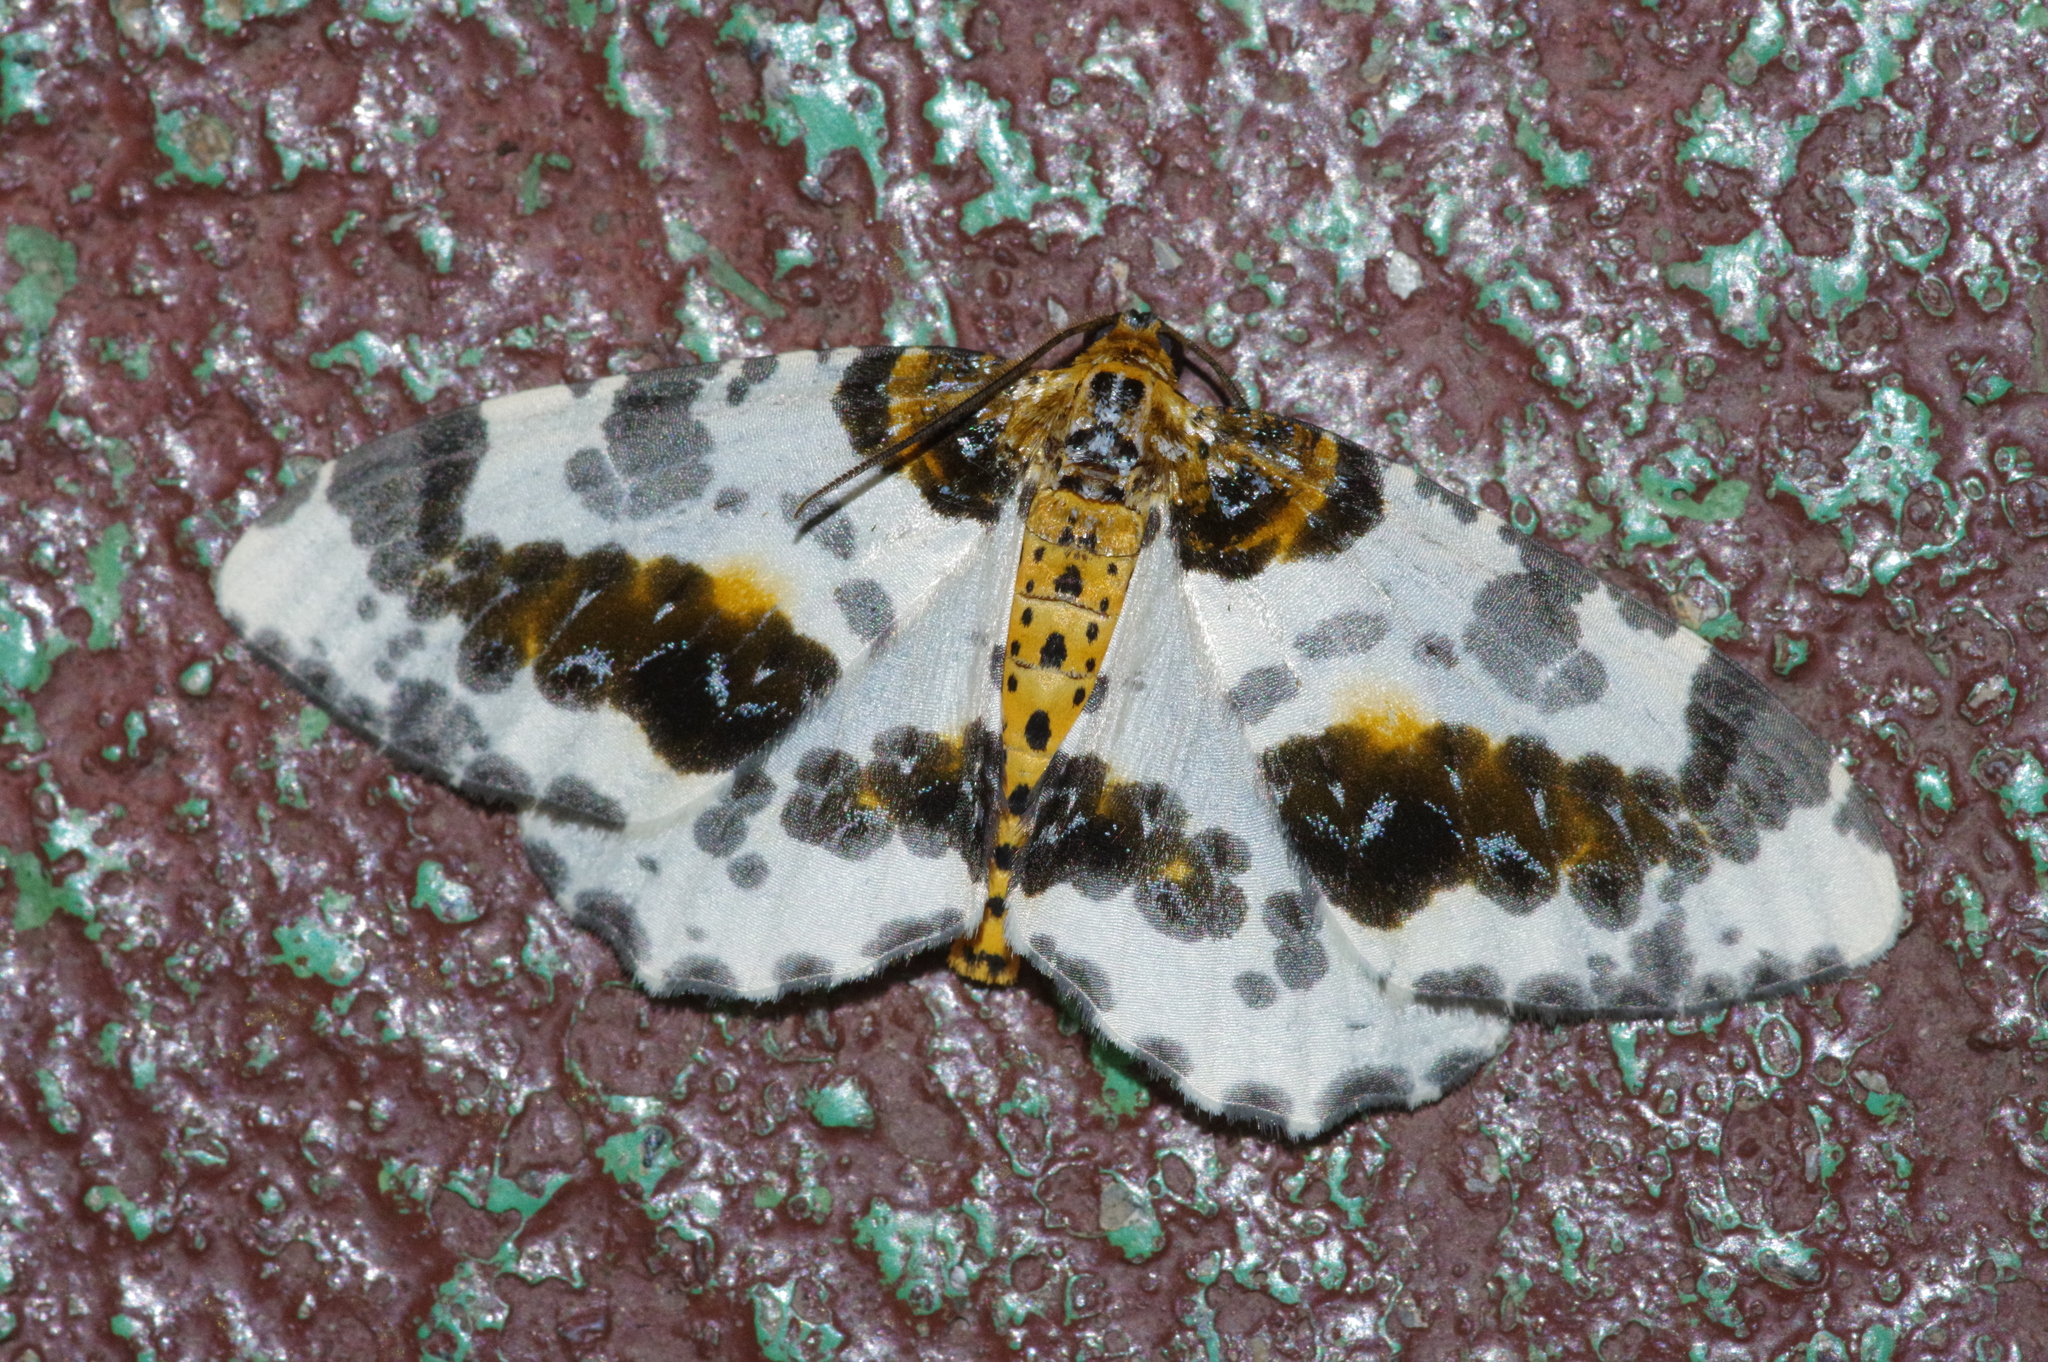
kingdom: Animalia
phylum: Arthropoda
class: Insecta
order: Lepidoptera
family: Geometridae
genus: Abraxas
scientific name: Abraxas miranda
